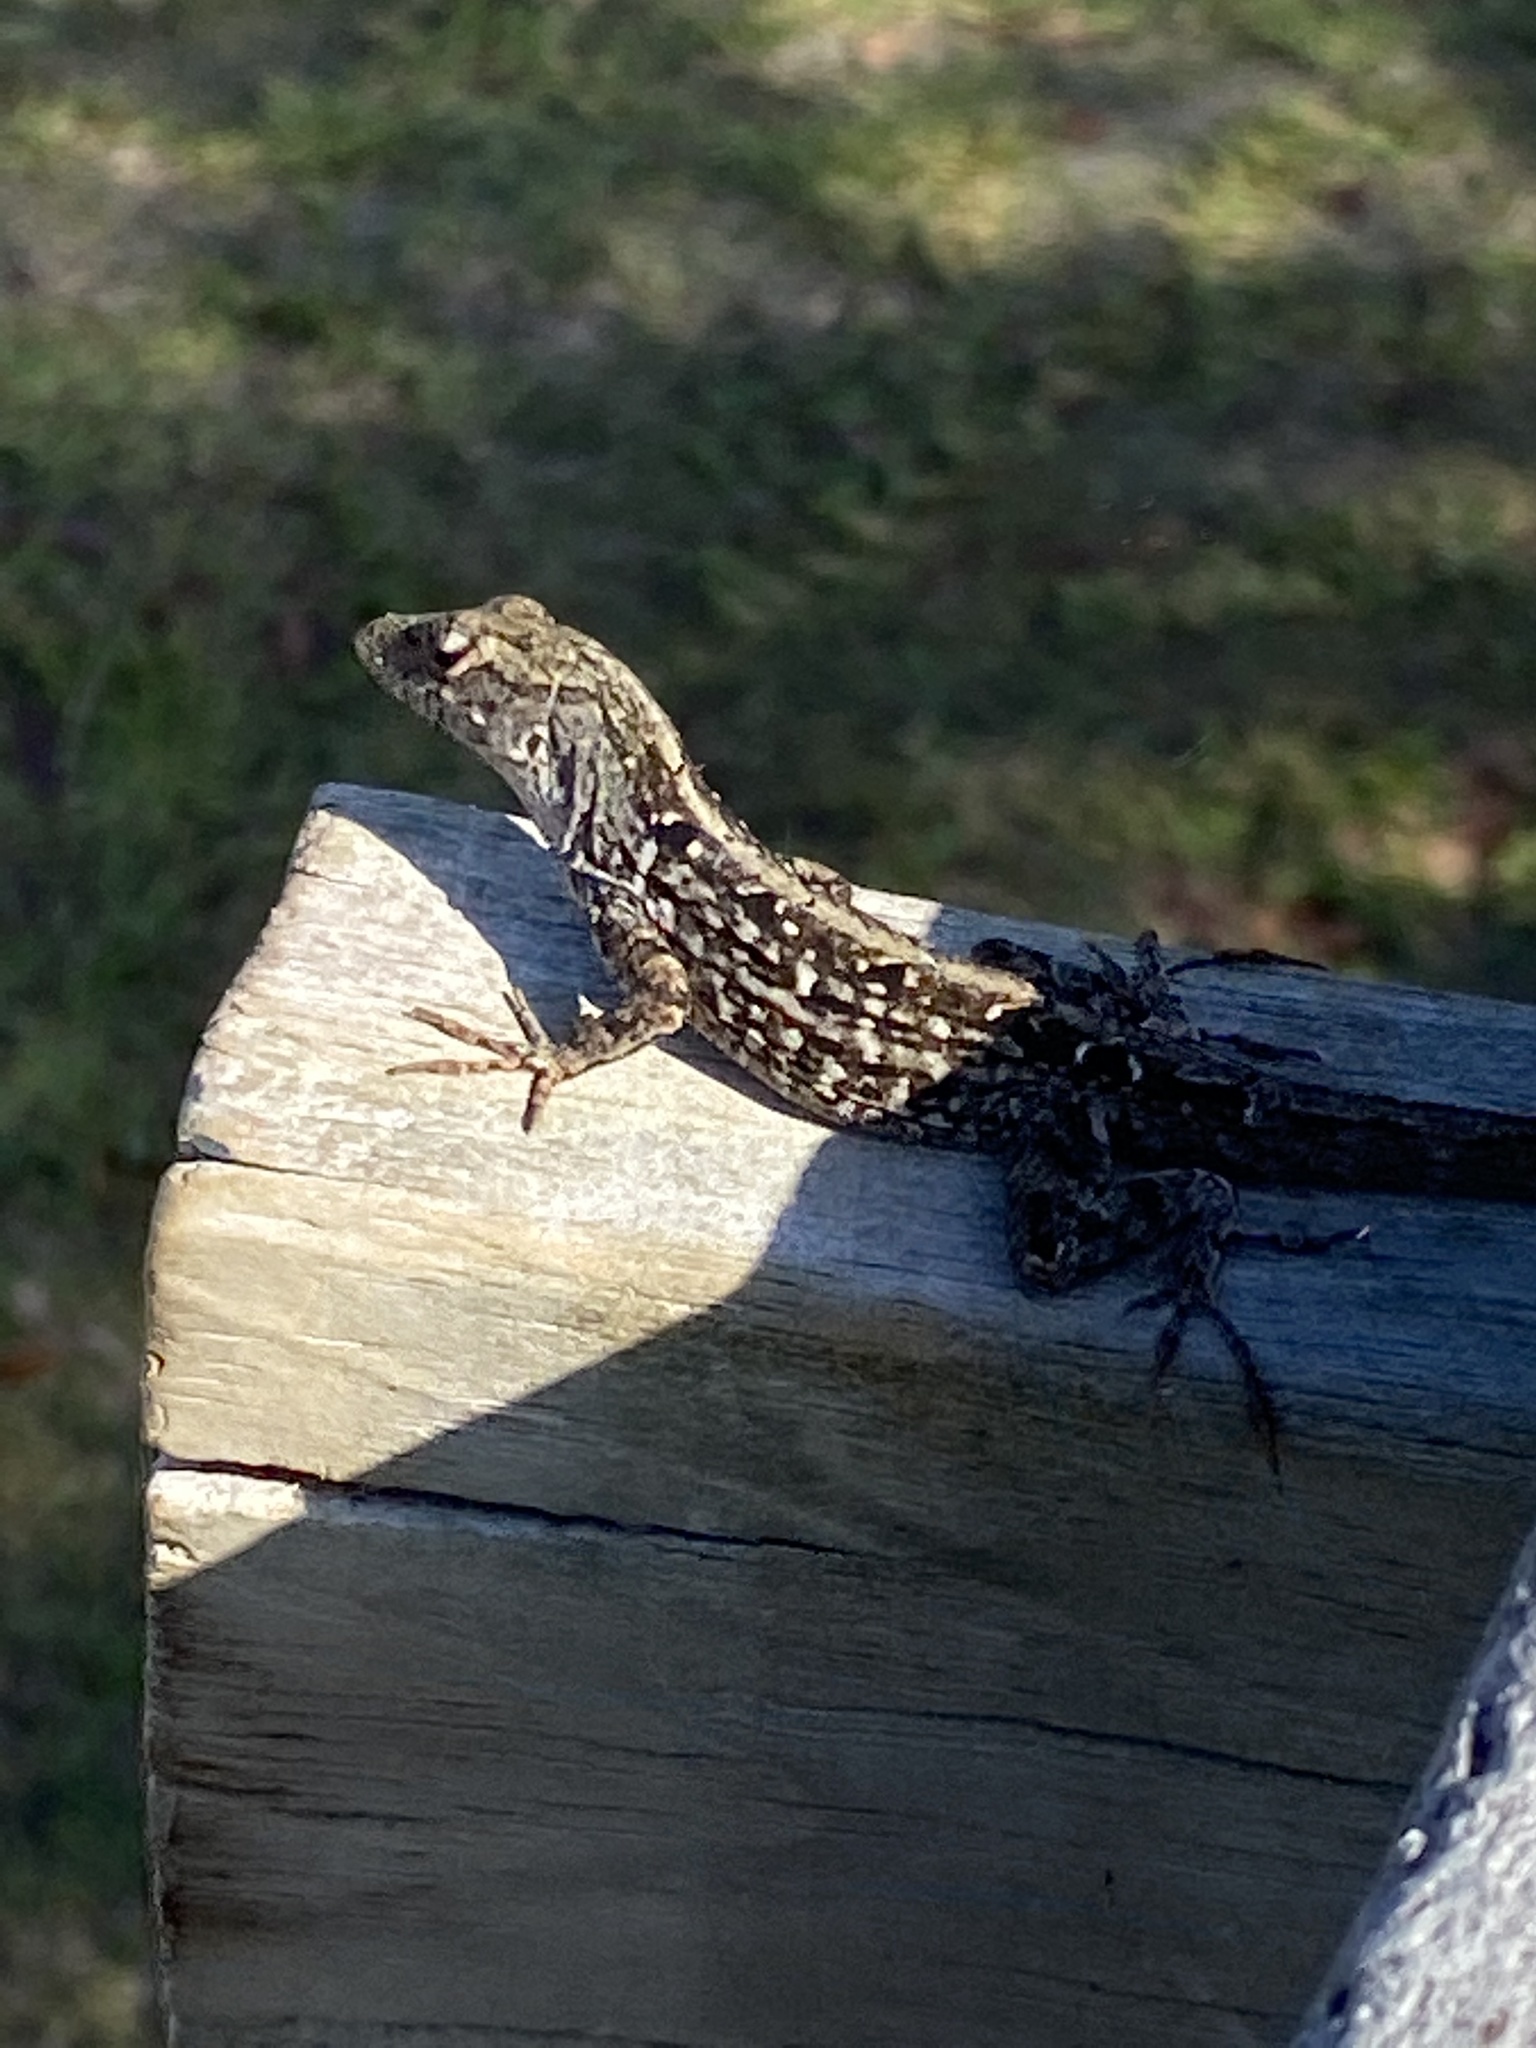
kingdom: Animalia
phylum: Chordata
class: Squamata
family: Dactyloidae
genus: Anolis
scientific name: Anolis sagrei
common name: Brown anole
